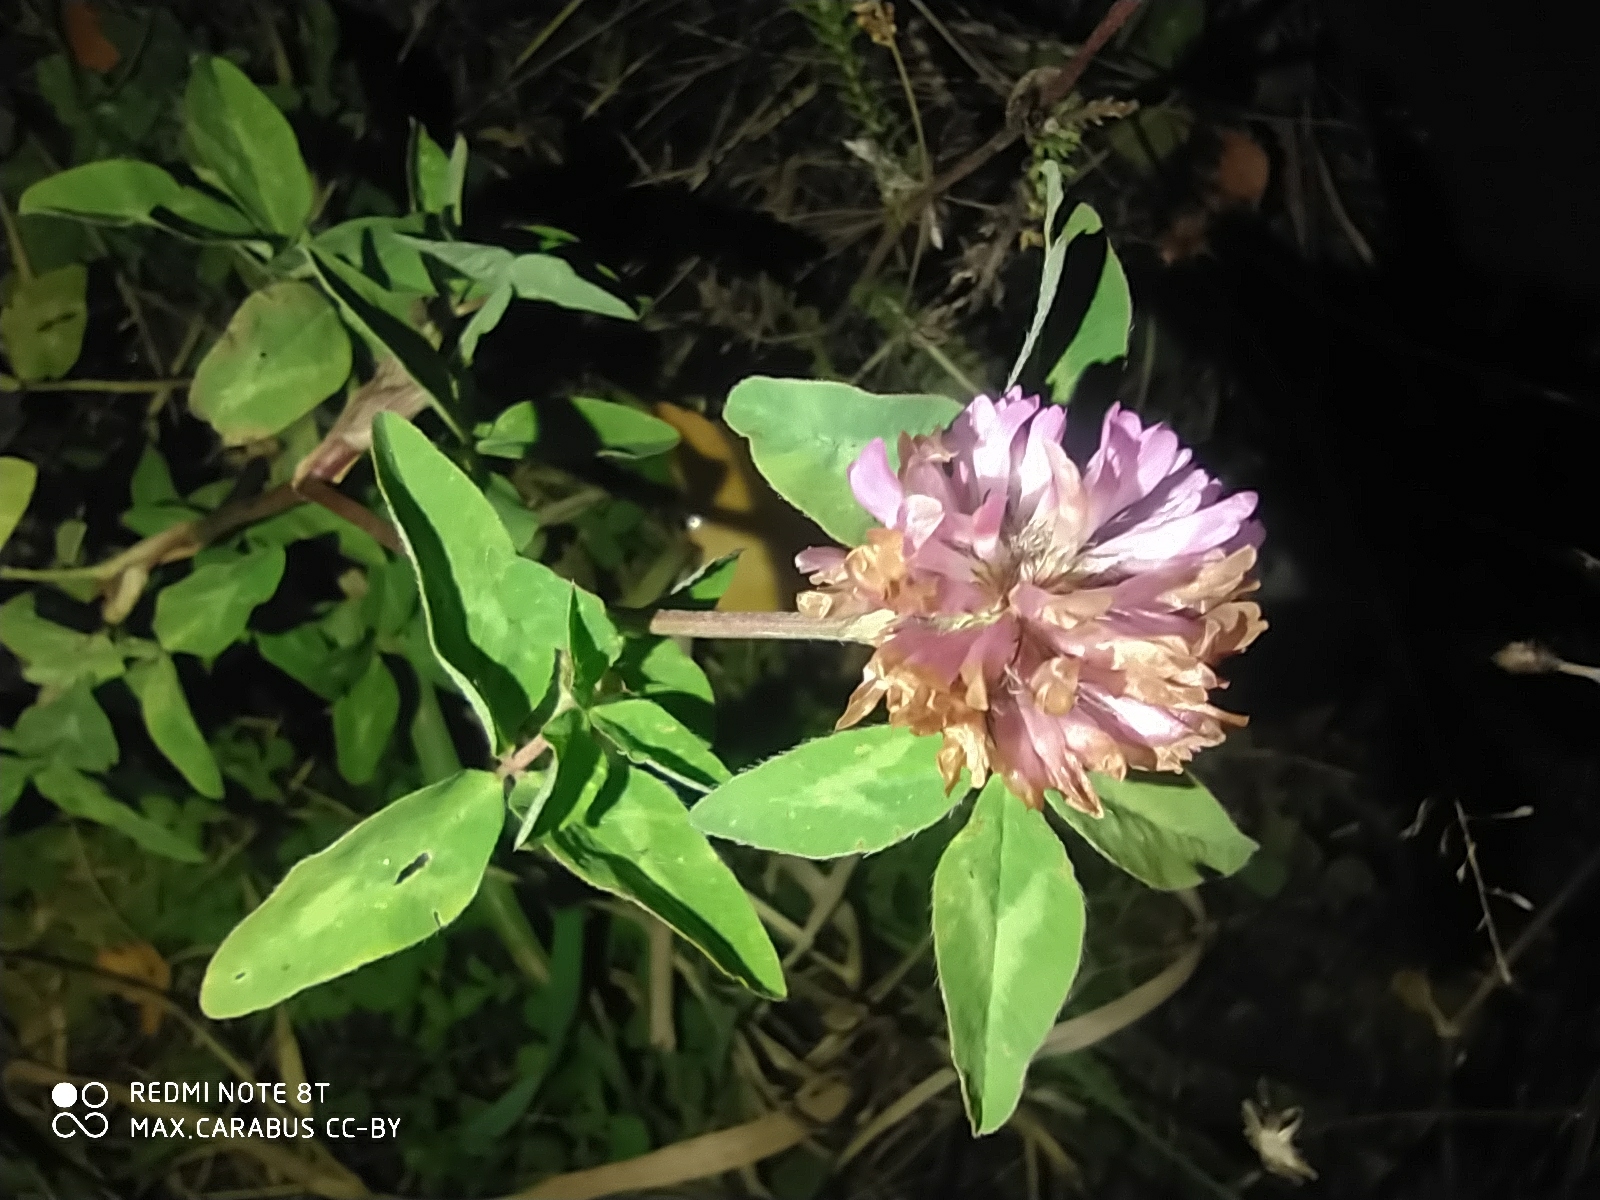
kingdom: Plantae
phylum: Tracheophyta
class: Magnoliopsida
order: Fabales
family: Fabaceae
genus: Trifolium
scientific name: Trifolium pratense
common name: Red clover
